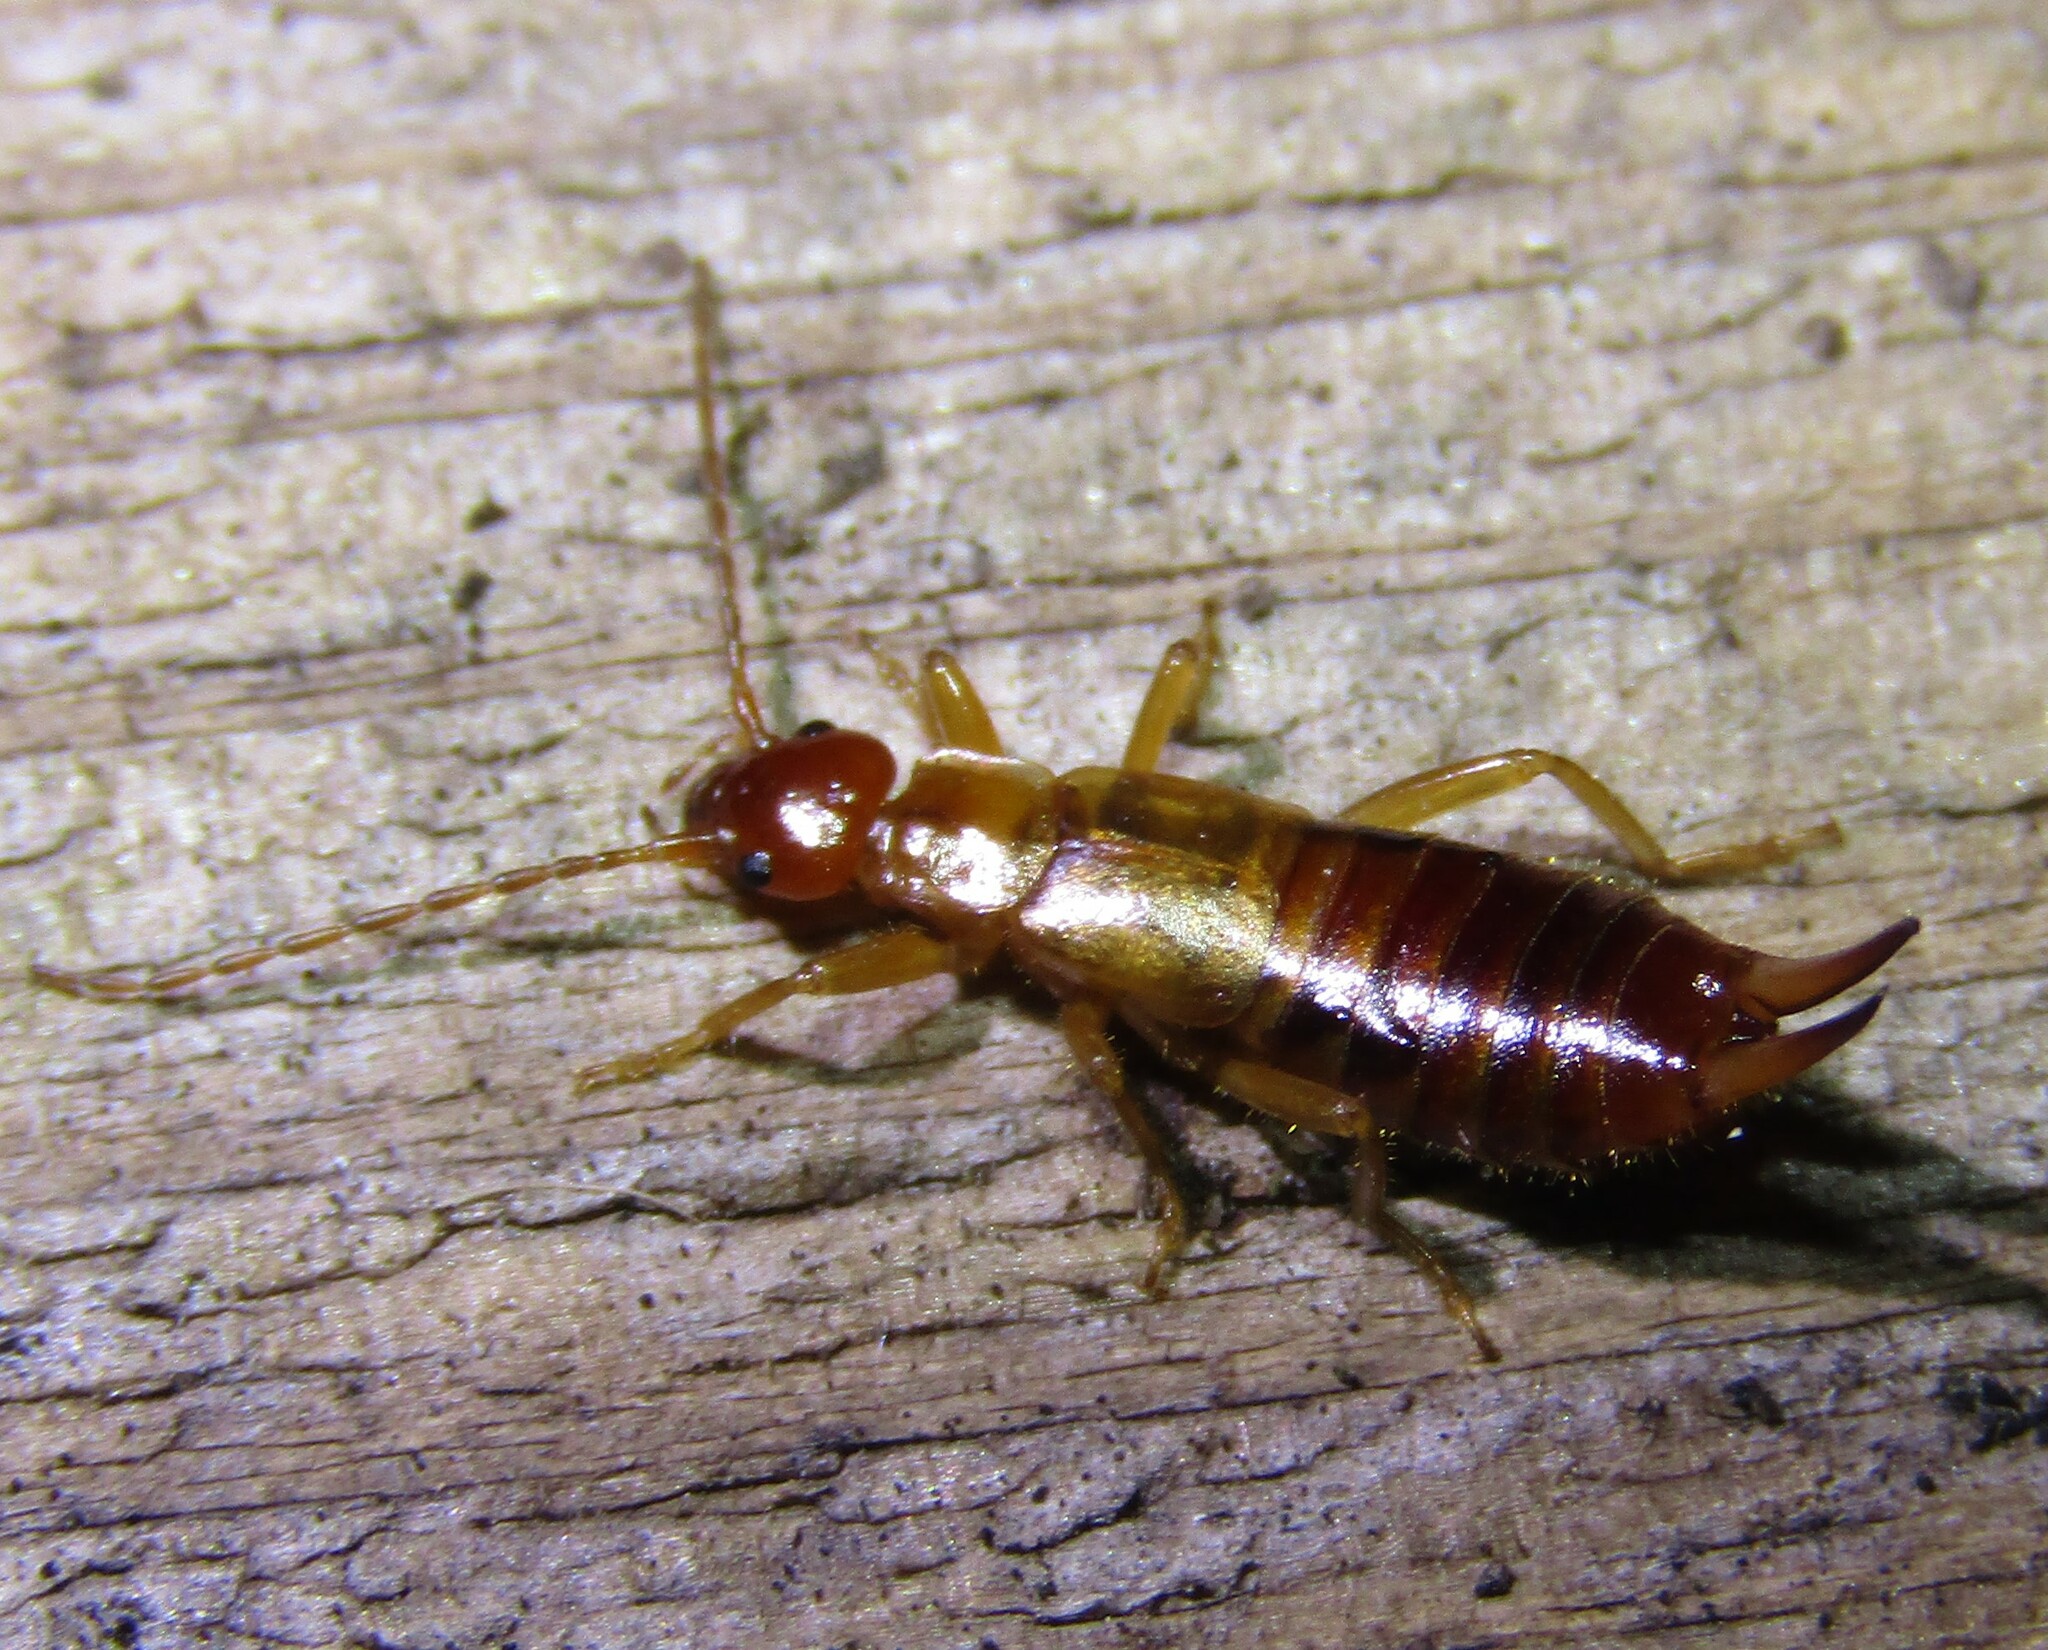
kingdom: Animalia
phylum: Arthropoda
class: Insecta
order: Dermaptera
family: Forficulidae
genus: Apterygida
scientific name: Apterygida albipennis
